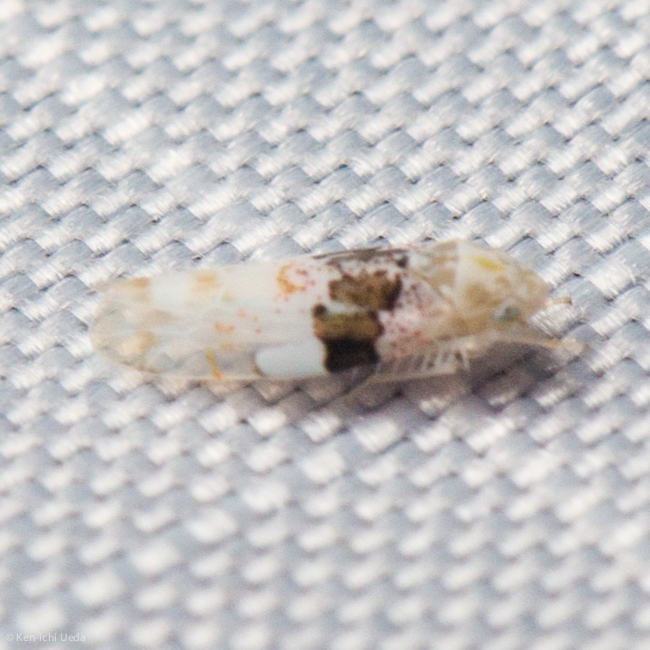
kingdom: Animalia
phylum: Arthropoda
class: Insecta
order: Hemiptera
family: Cicadellidae
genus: Hymetta
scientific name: Hymetta anthisma
